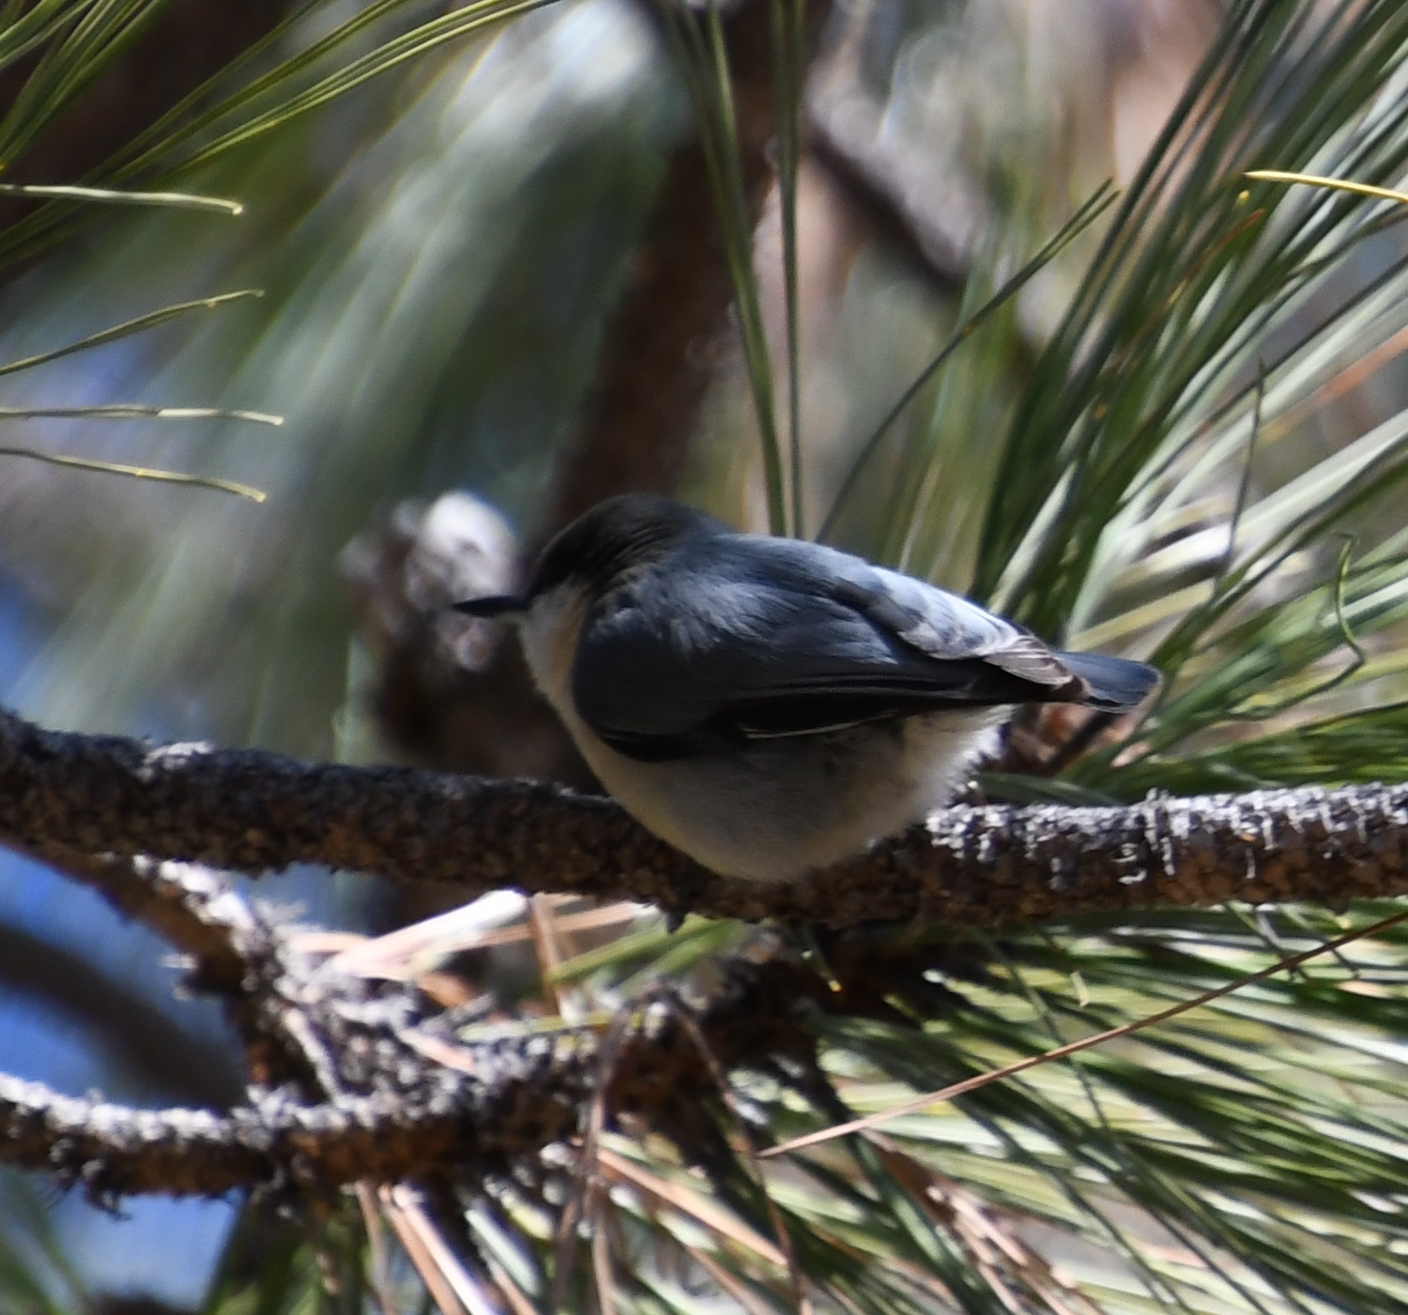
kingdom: Animalia
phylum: Chordata
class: Aves
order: Passeriformes
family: Sittidae
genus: Sitta
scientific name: Sitta pygmaea
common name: Pygmy nuthatch
